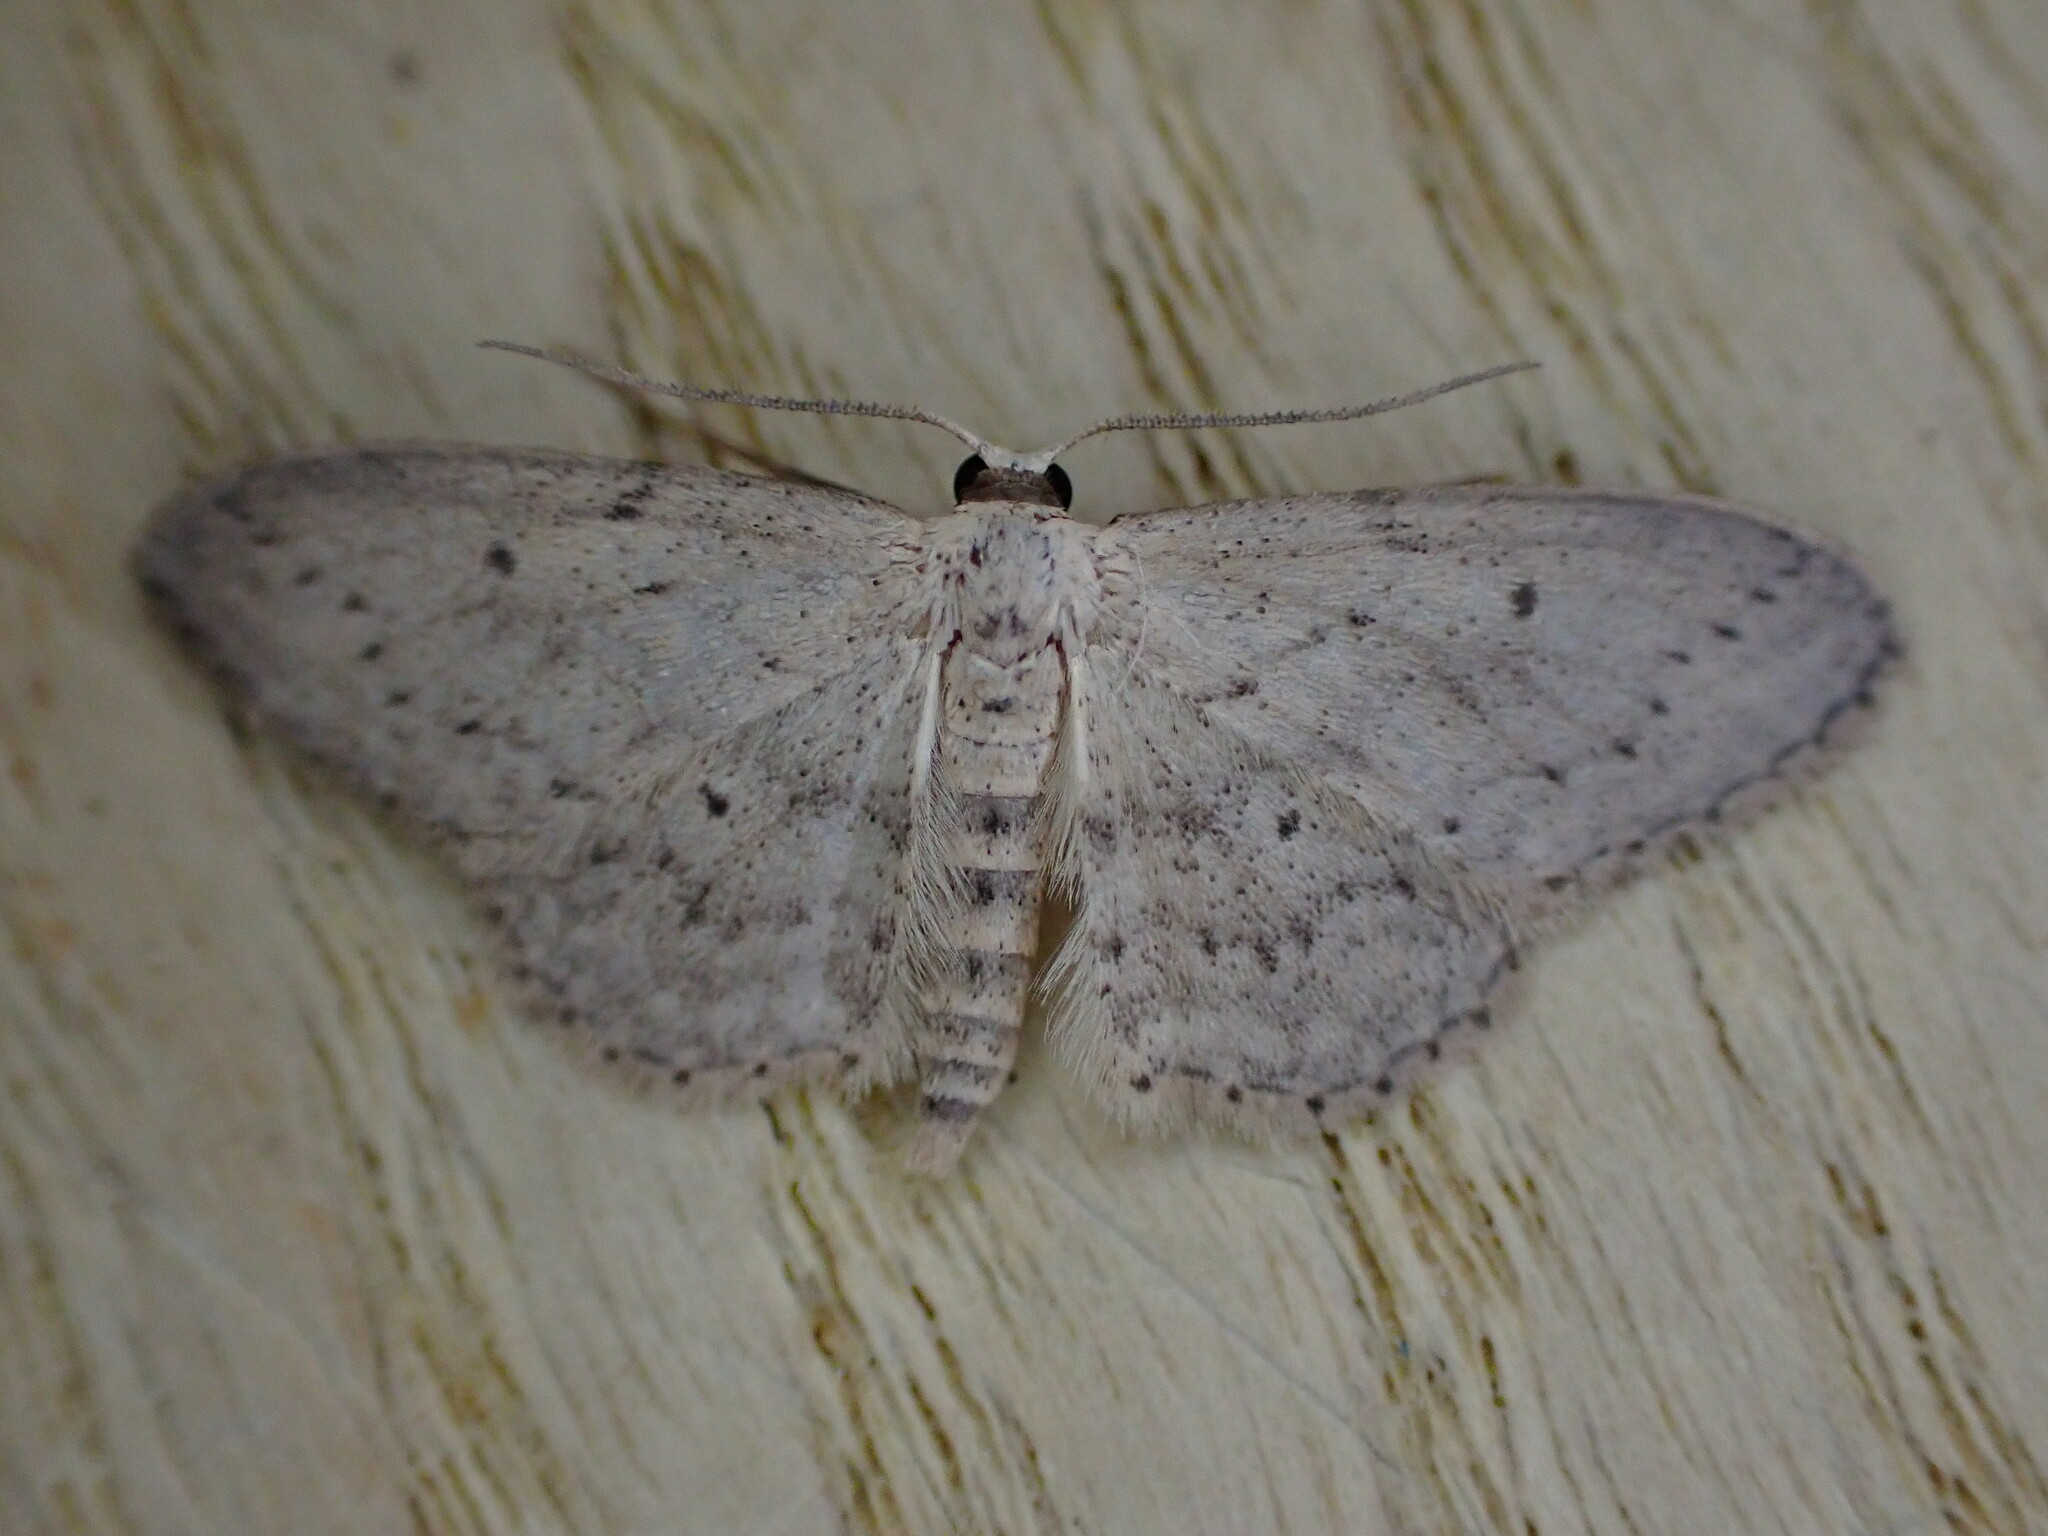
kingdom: Animalia
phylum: Arthropoda
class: Insecta
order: Lepidoptera
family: Geometridae
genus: Idaea
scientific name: Idaea seriata
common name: Small dusty wave
